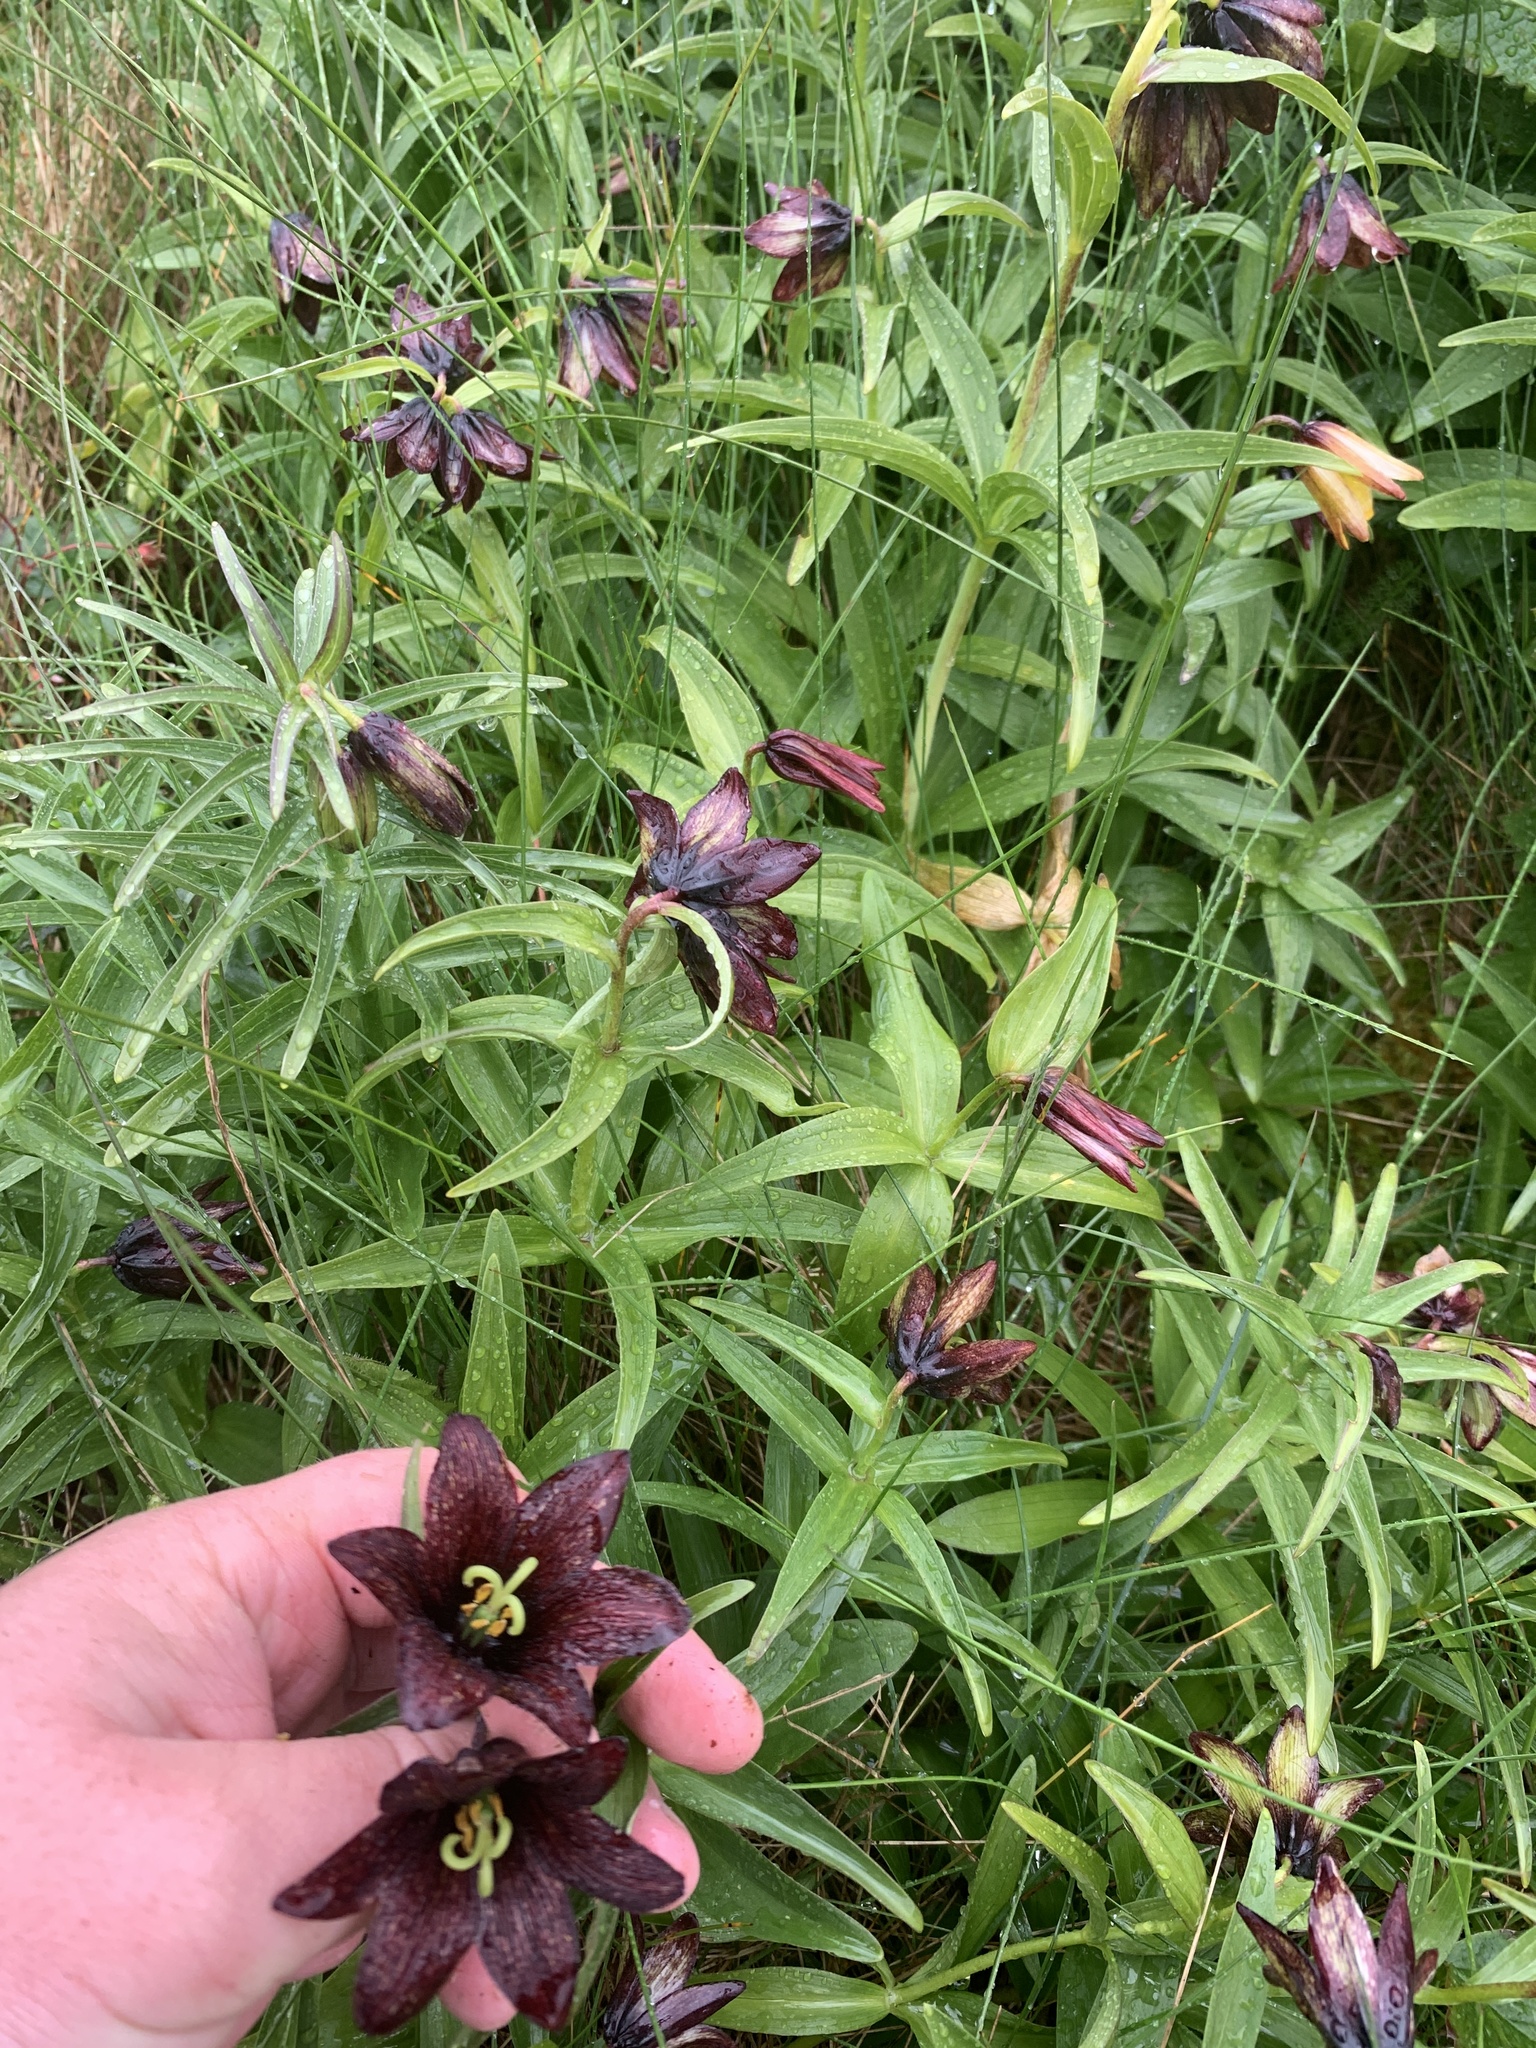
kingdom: Plantae
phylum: Tracheophyta
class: Liliopsida
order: Liliales
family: Liliaceae
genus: Fritillaria
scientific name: Fritillaria camschatcensis
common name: Kamchatka fritillary
